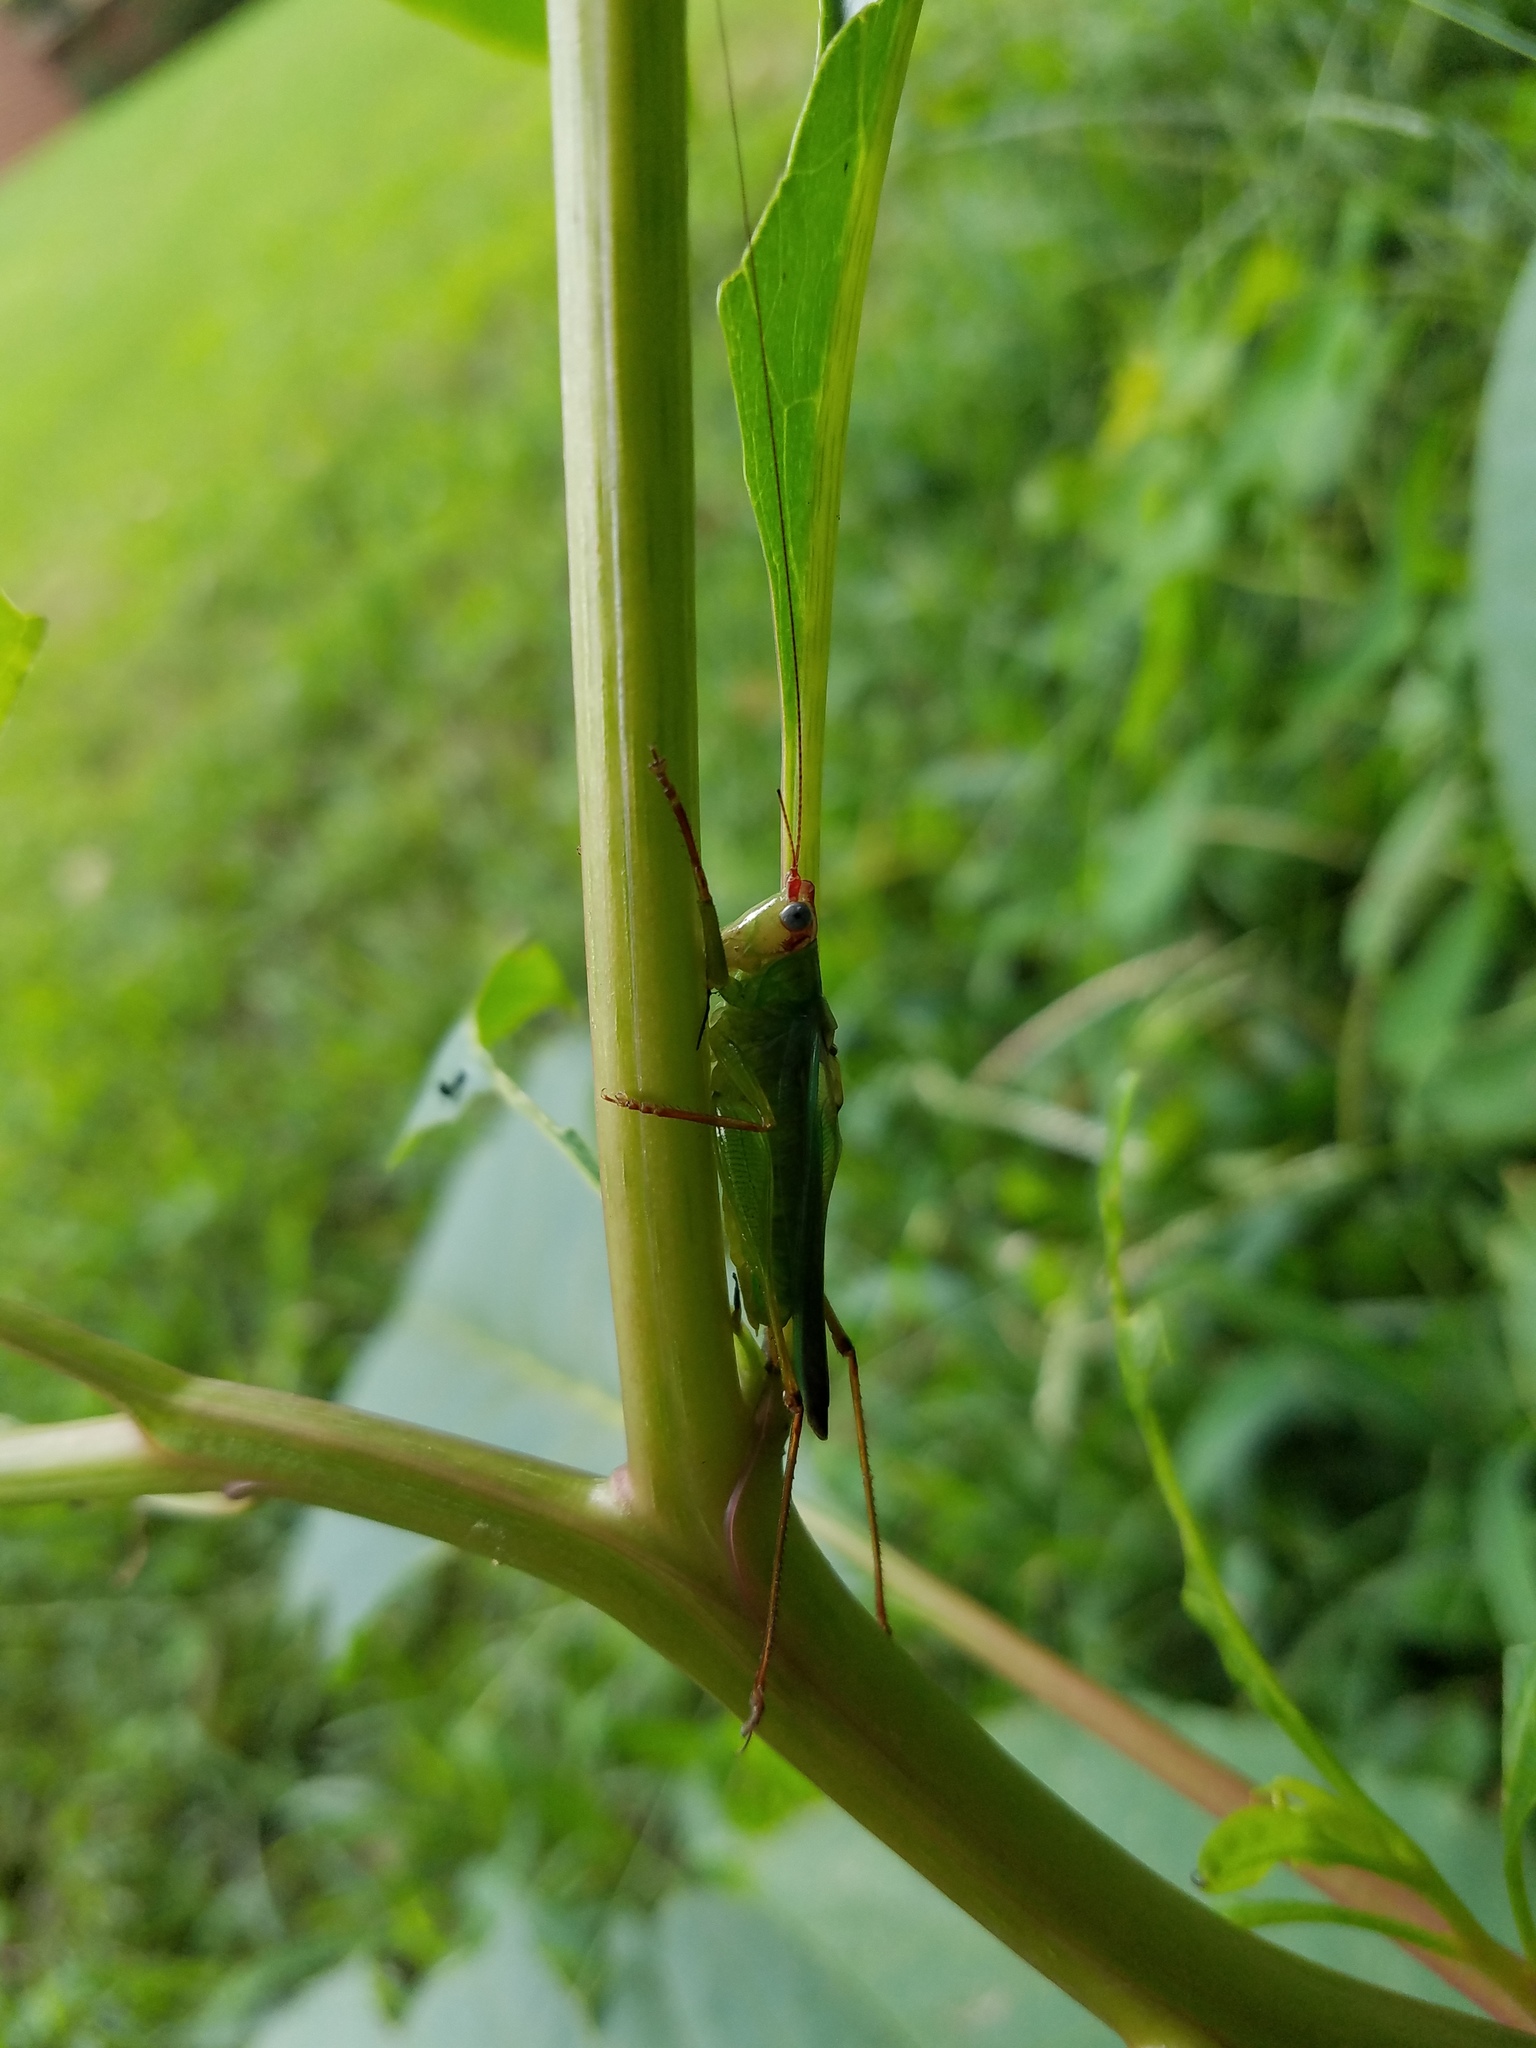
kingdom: Animalia
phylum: Arthropoda
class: Insecta
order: Orthoptera
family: Tettigoniidae
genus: Orchelimum
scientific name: Orchelimum pulchellum
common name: Handsome meadow katydid
